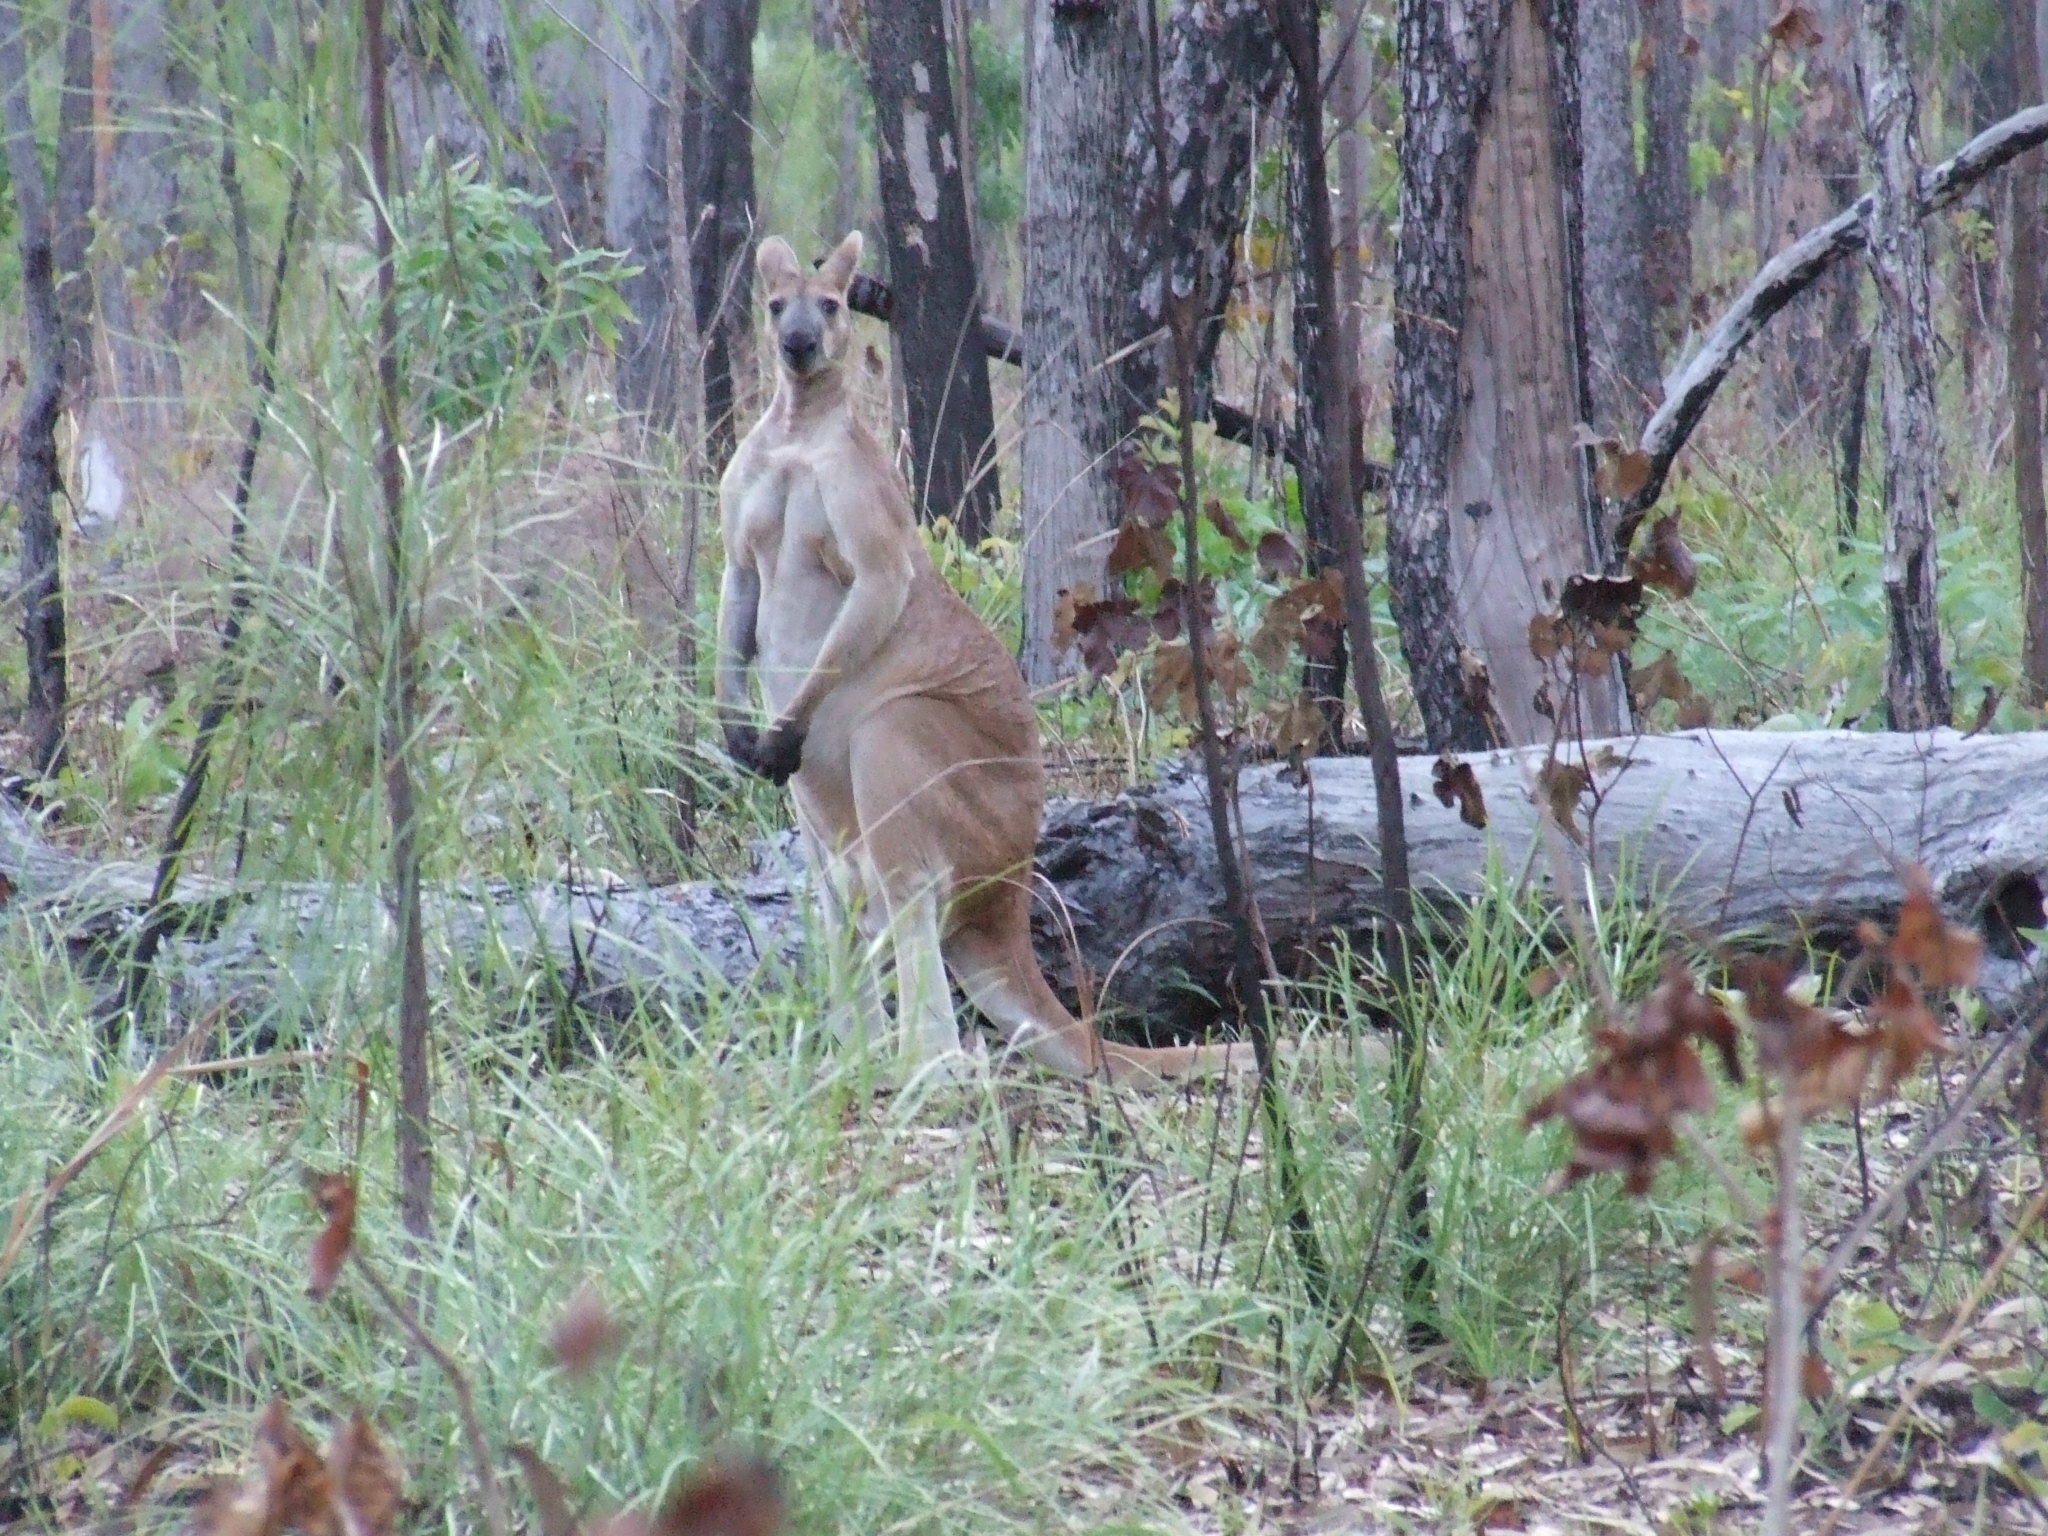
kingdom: Animalia
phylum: Chordata
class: Mammalia
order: Diprotodontia
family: Macropodidae
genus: Macropus
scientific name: Macropus antilopinus
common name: Antilopine kangaroo
